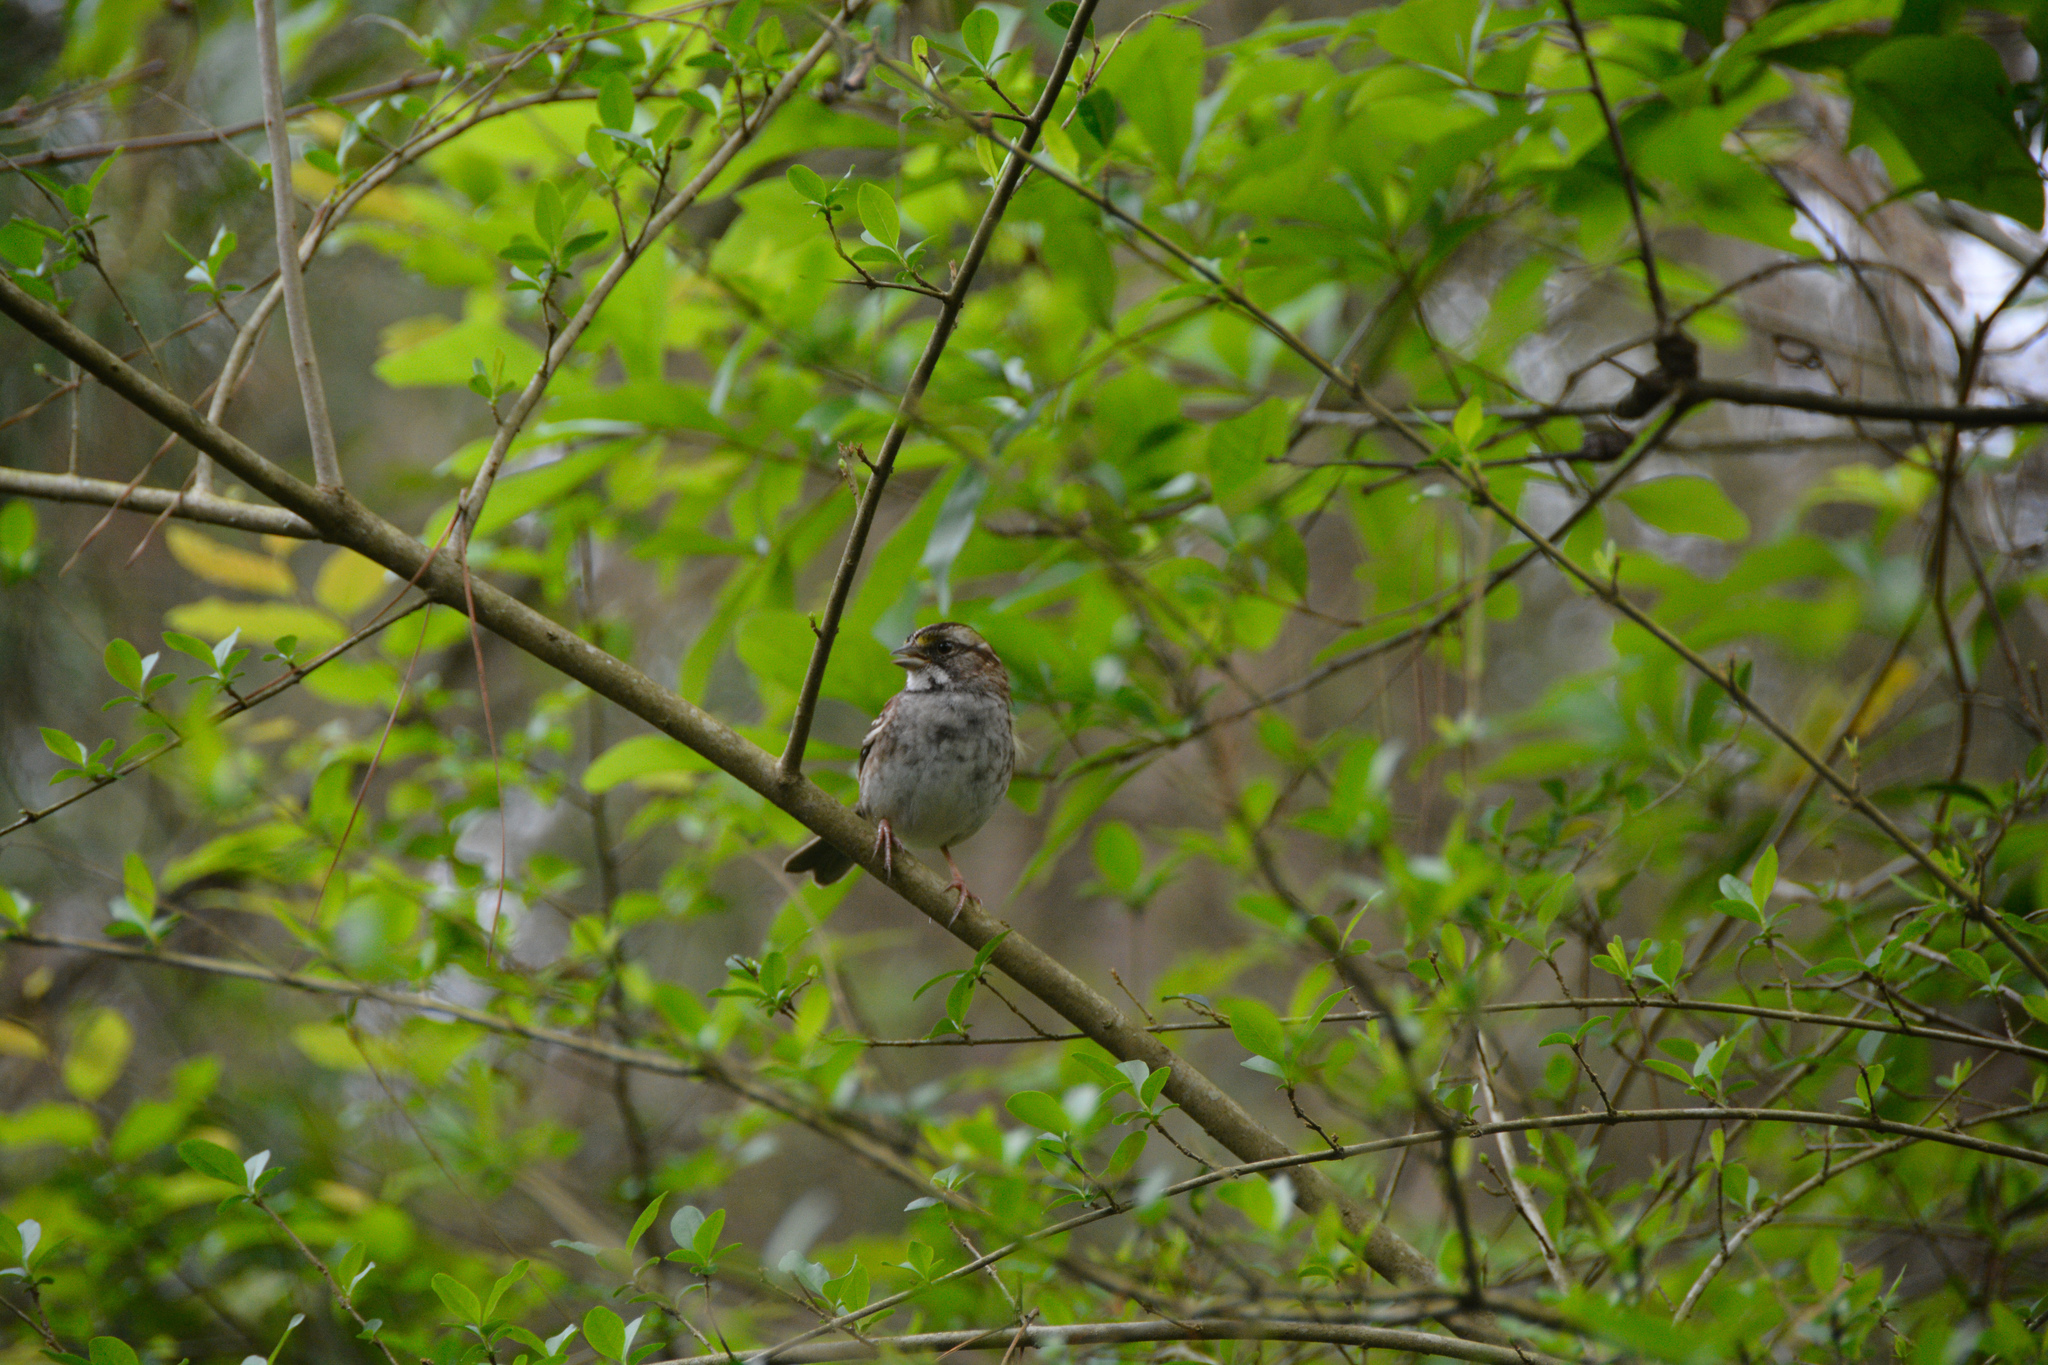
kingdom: Animalia
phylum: Chordata
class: Aves
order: Passeriformes
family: Passerellidae
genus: Zonotrichia
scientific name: Zonotrichia albicollis
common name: White-throated sparrow
